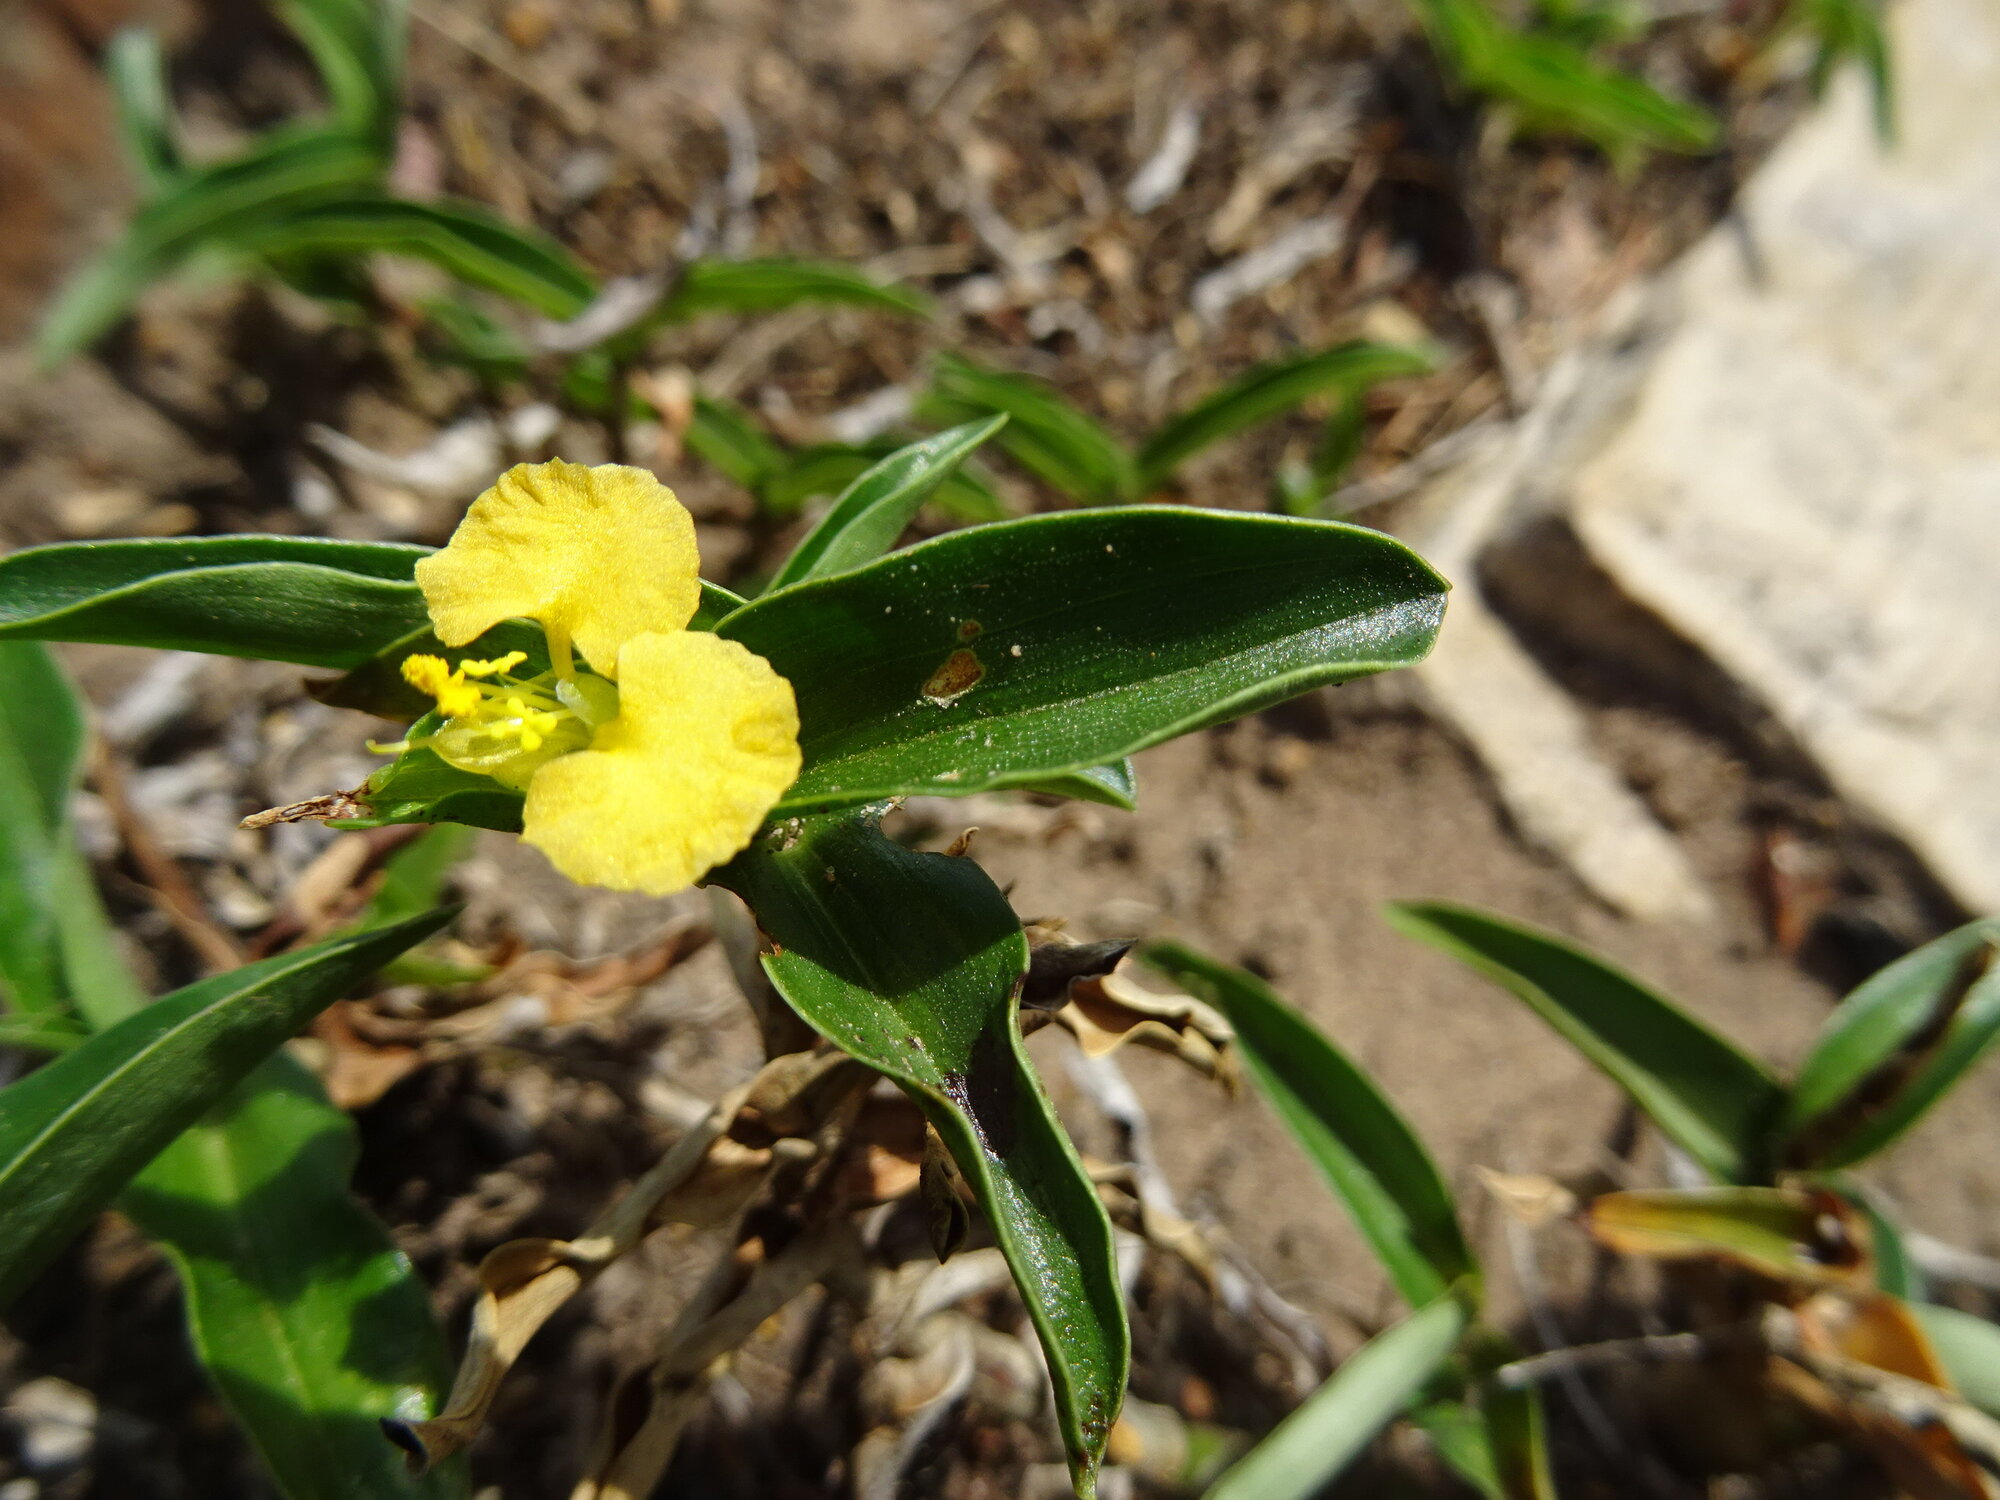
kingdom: Plantae
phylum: Tracheophyta
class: Liliopsida
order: Commelinales
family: Commelinaceae
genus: Commelina
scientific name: Commelina africana
